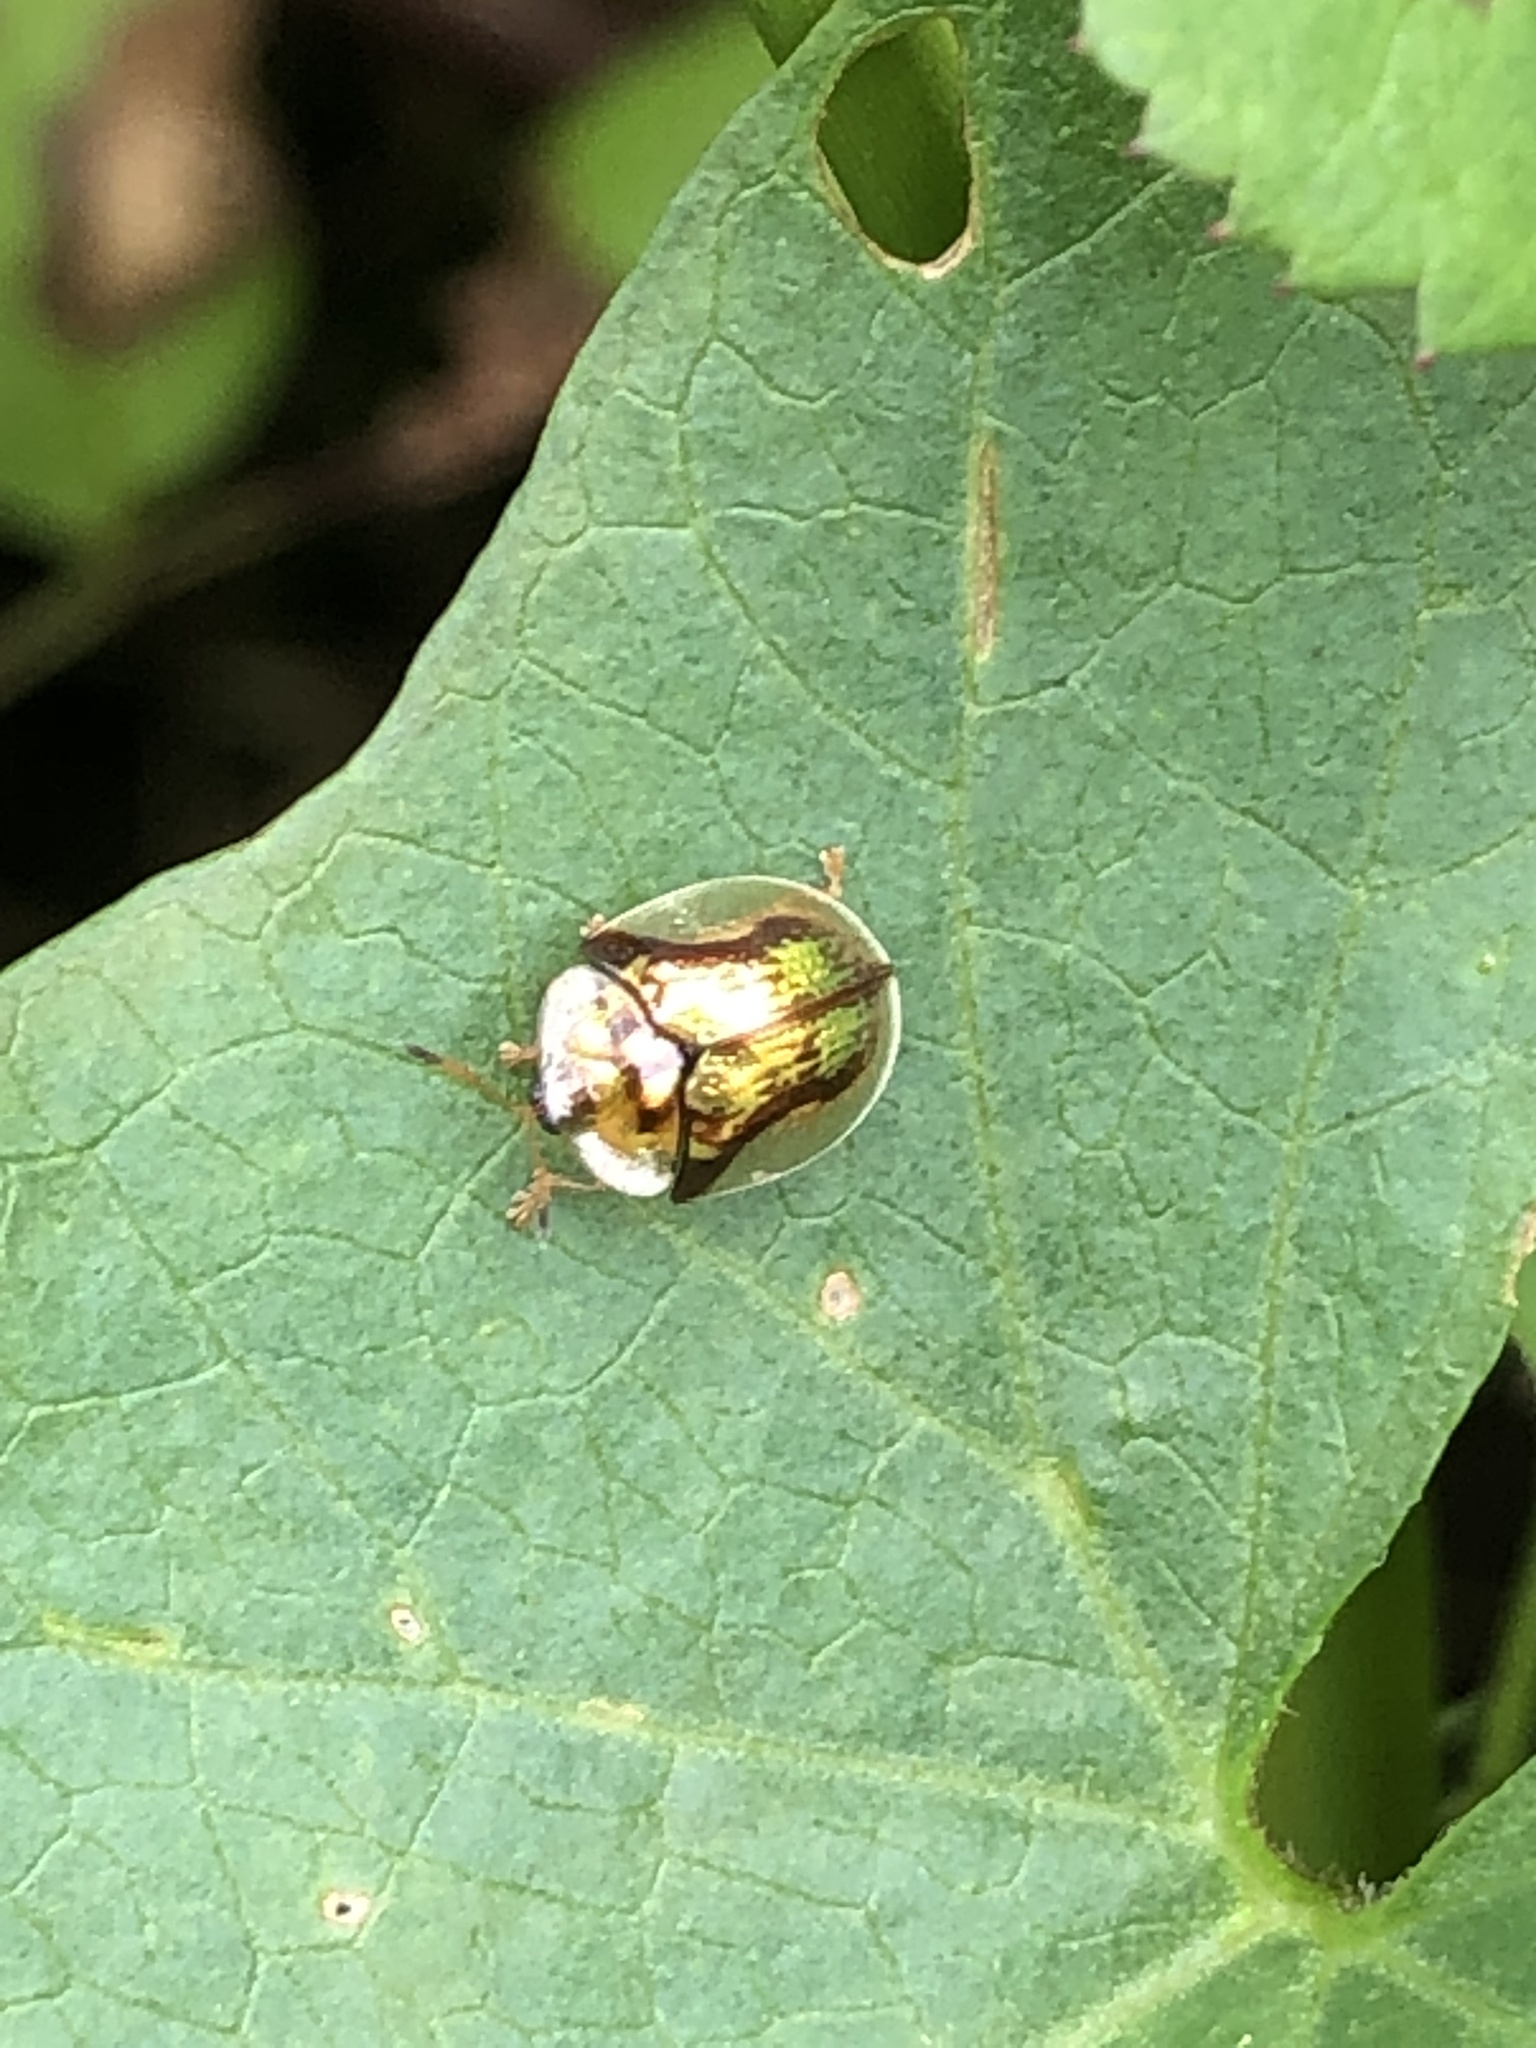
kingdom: Animalia
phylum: Arthropoda
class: Insecta
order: Coleoptera
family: Chrysomelidae
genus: Deloyala
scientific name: Deloyala guttata
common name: Mottled tortoise beetle
